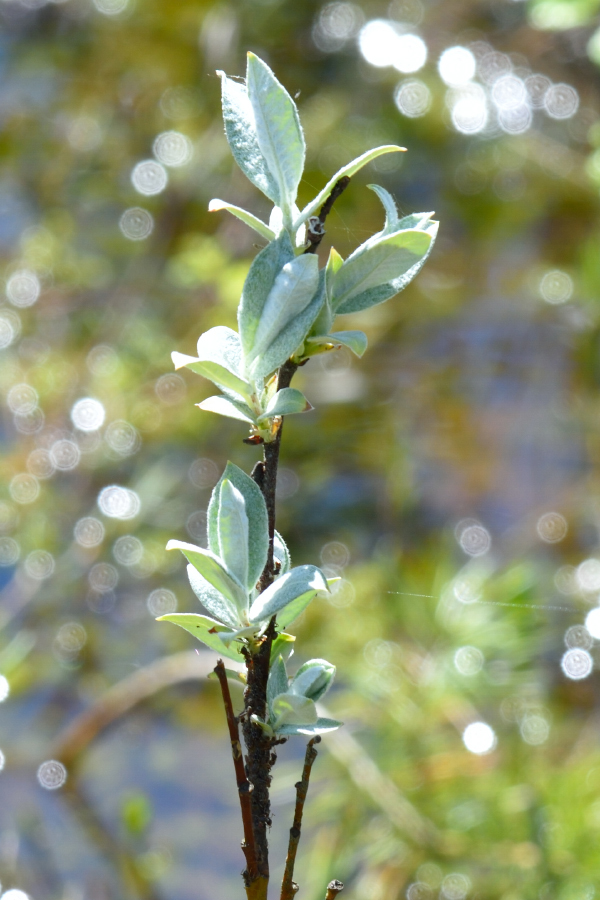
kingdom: Plantae
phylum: Tracheophyta
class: Magnoliopsida
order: Malpighiales
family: Salicaceae
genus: Salix
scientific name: Salix lapponum
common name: Downy willow
